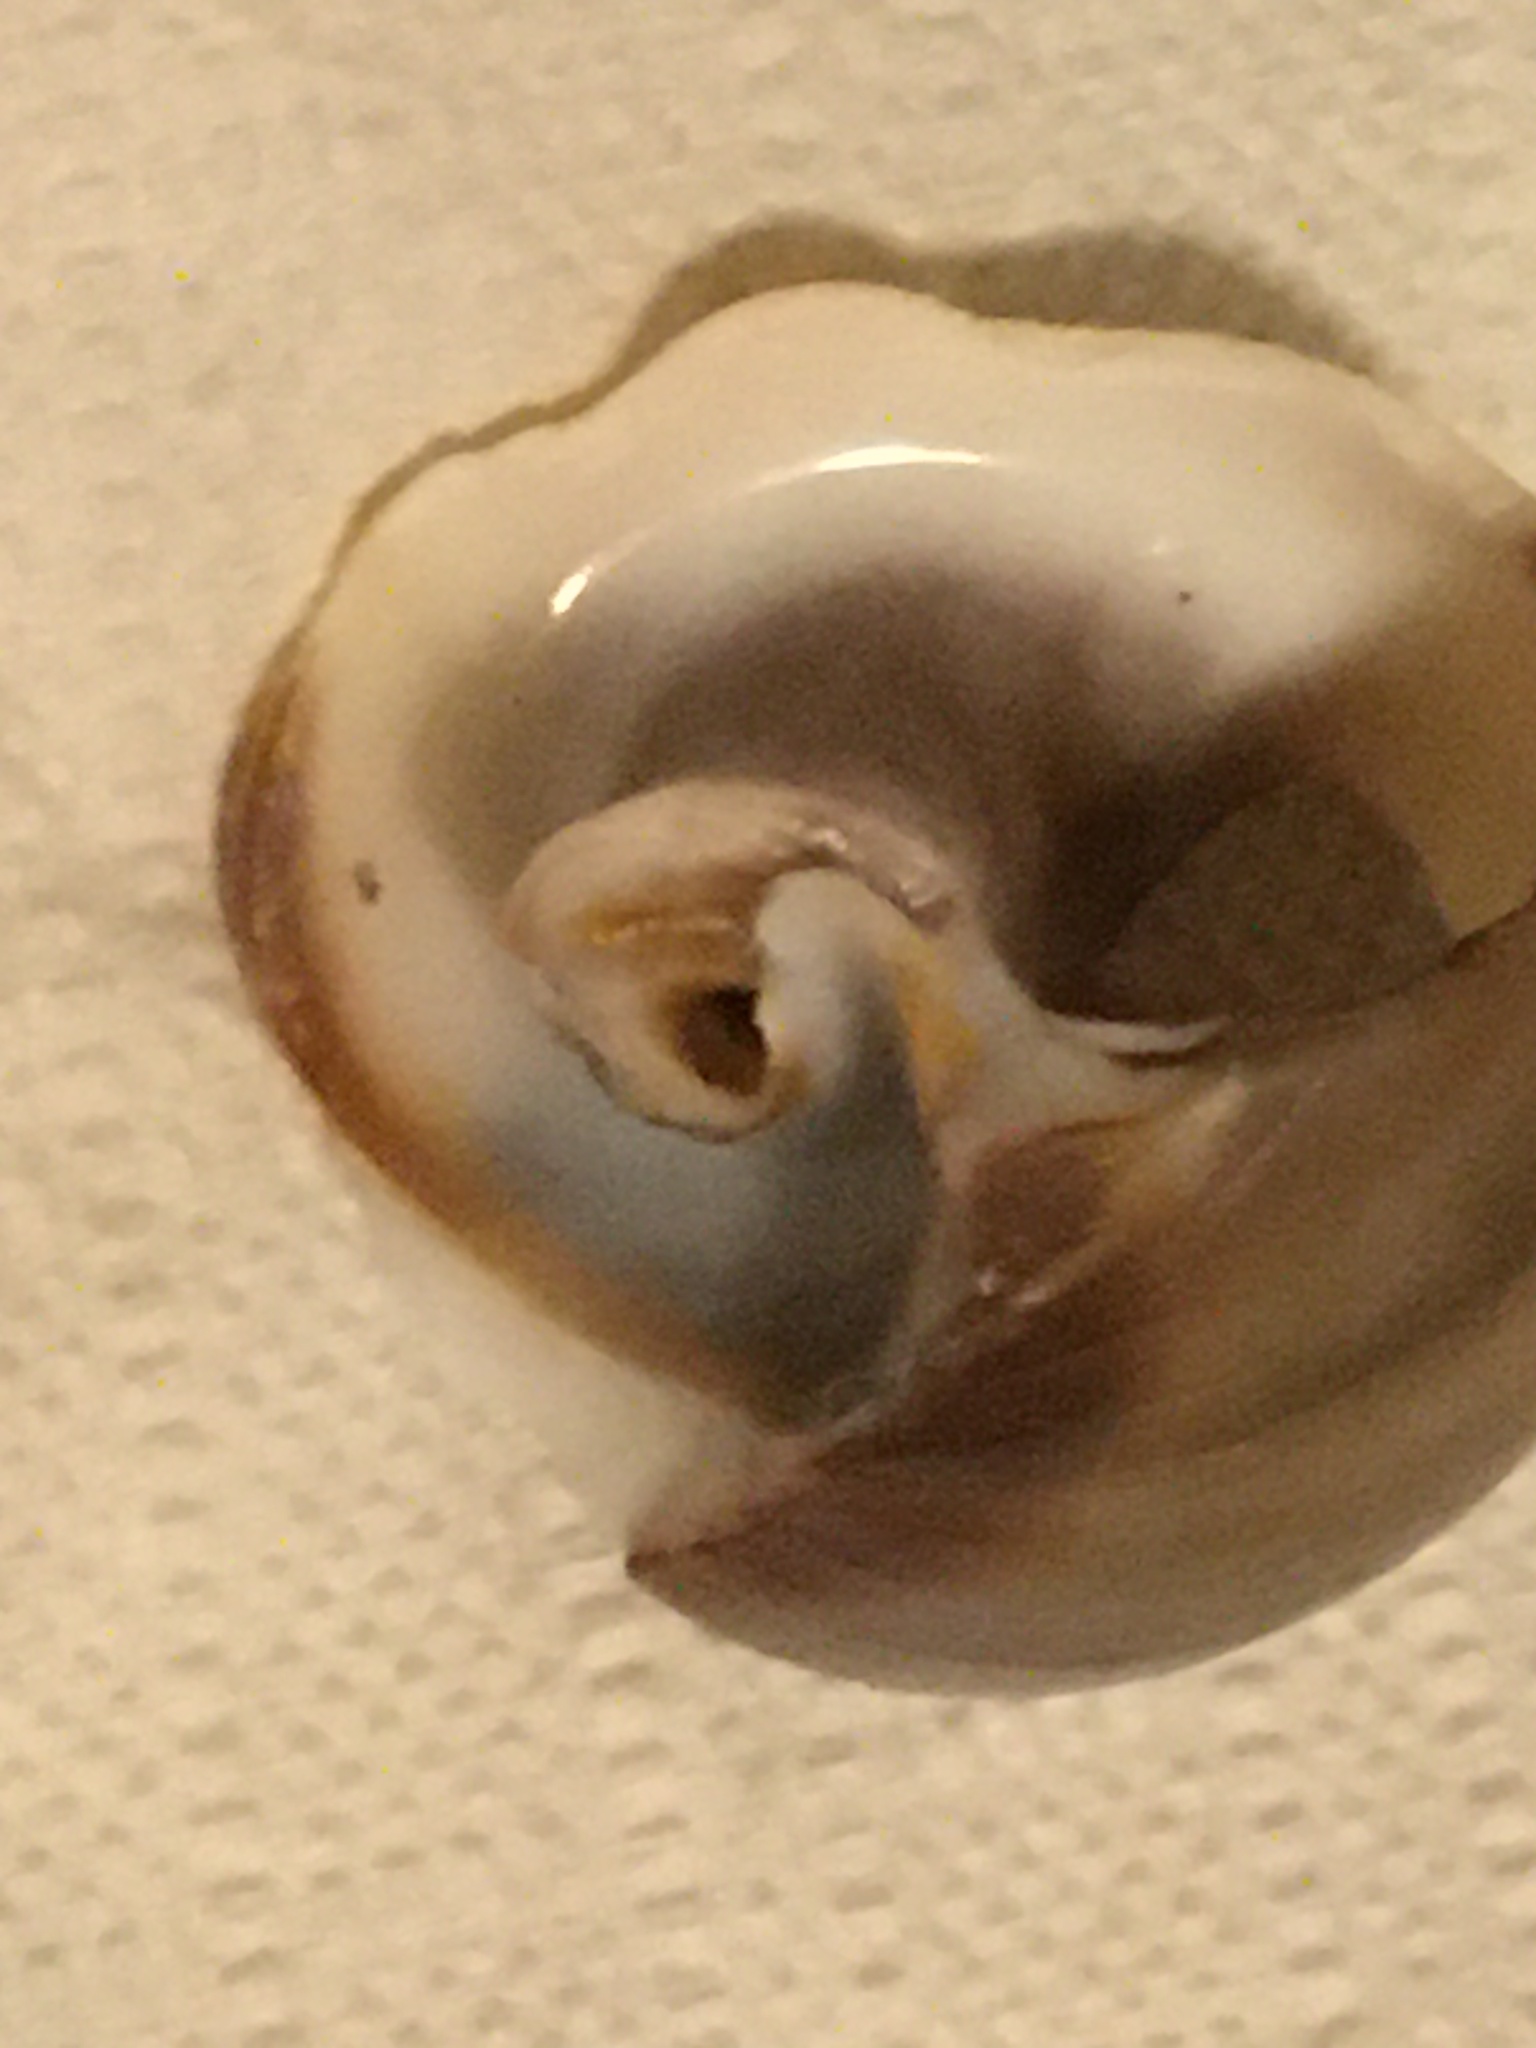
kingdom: Animalia
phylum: Mollusca
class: Gastropoda
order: Littorinimorpha
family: Naticidae
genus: Glossaulax
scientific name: Glossaulax reclusiana
